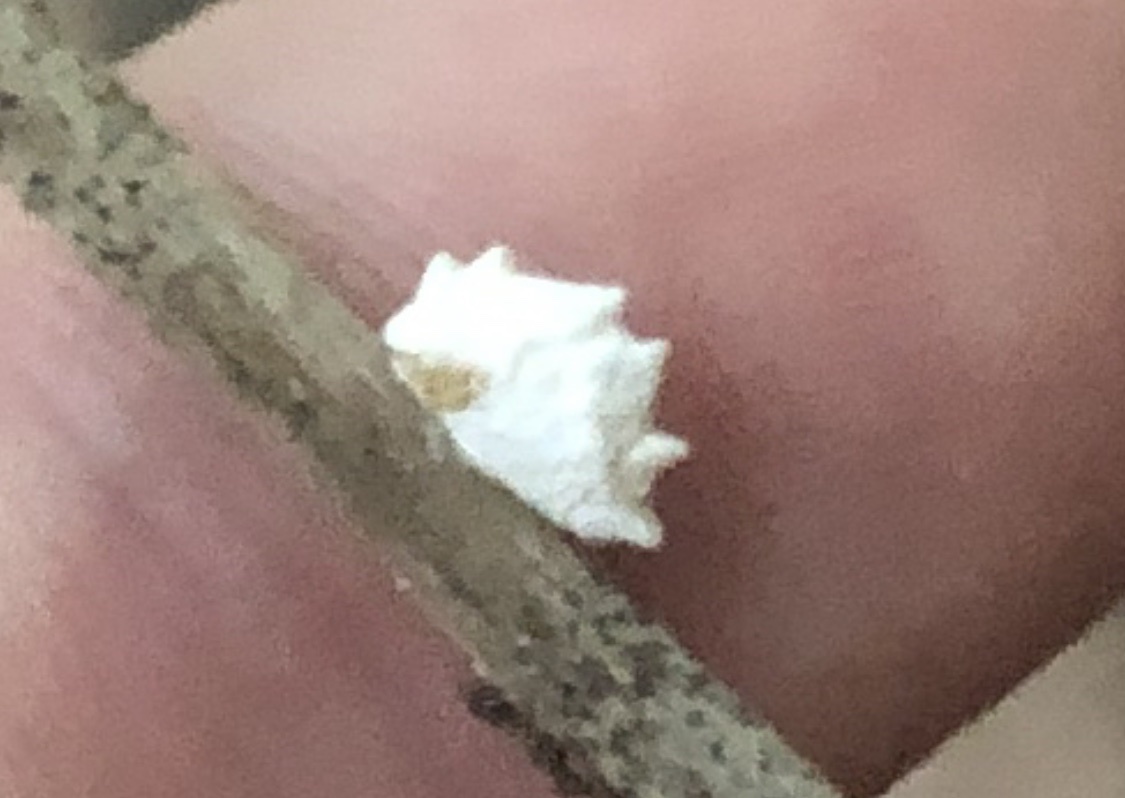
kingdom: Animalia
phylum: Arthropoda
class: Insecta
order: Lepidoptera
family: Epipyropidae
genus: Fulgoraecia
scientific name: Fulgoraecia exigua
